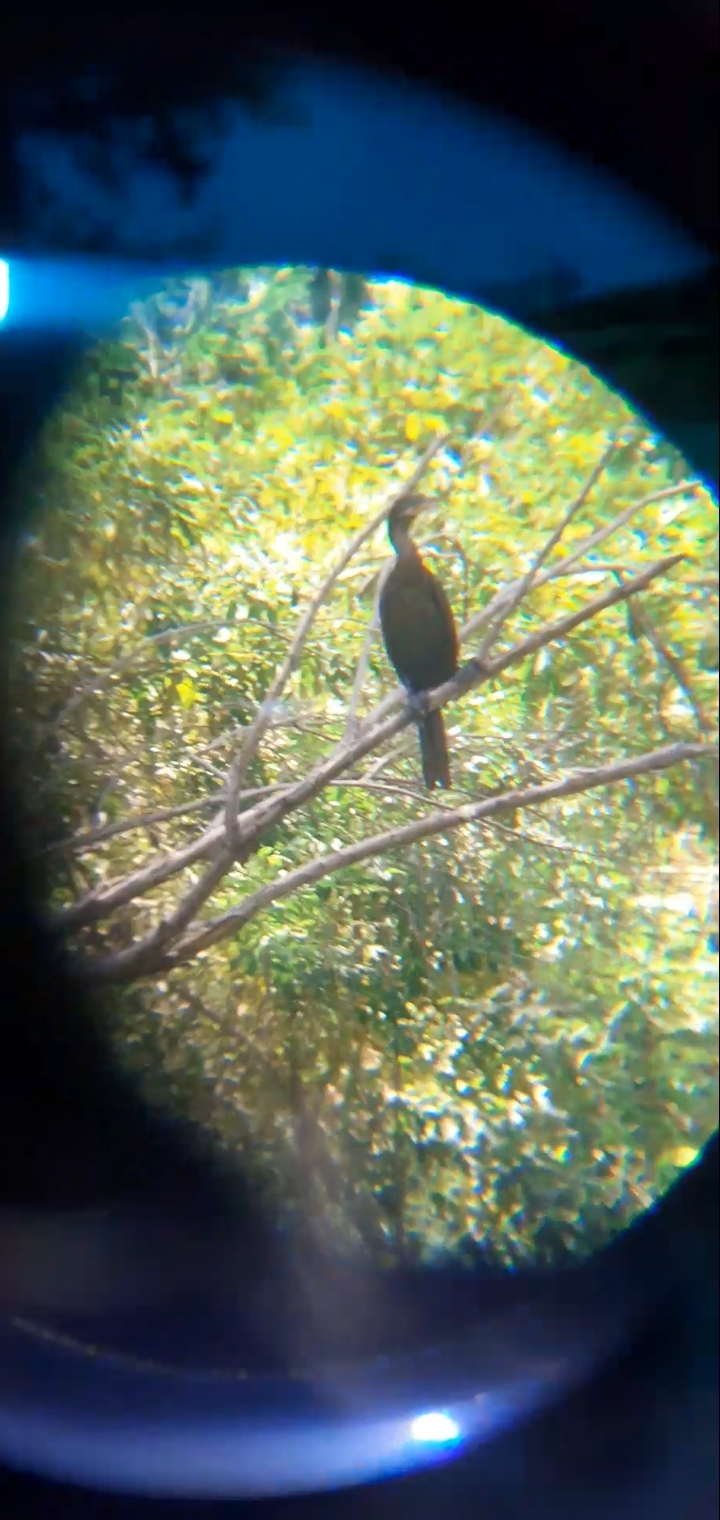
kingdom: Animalia
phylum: Chordata
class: Aves
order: Suliformes
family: Phalacrocoracidae
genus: Phalacrocorax
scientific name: Phalacrocorax brasilianus
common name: Neotropic cormorant
